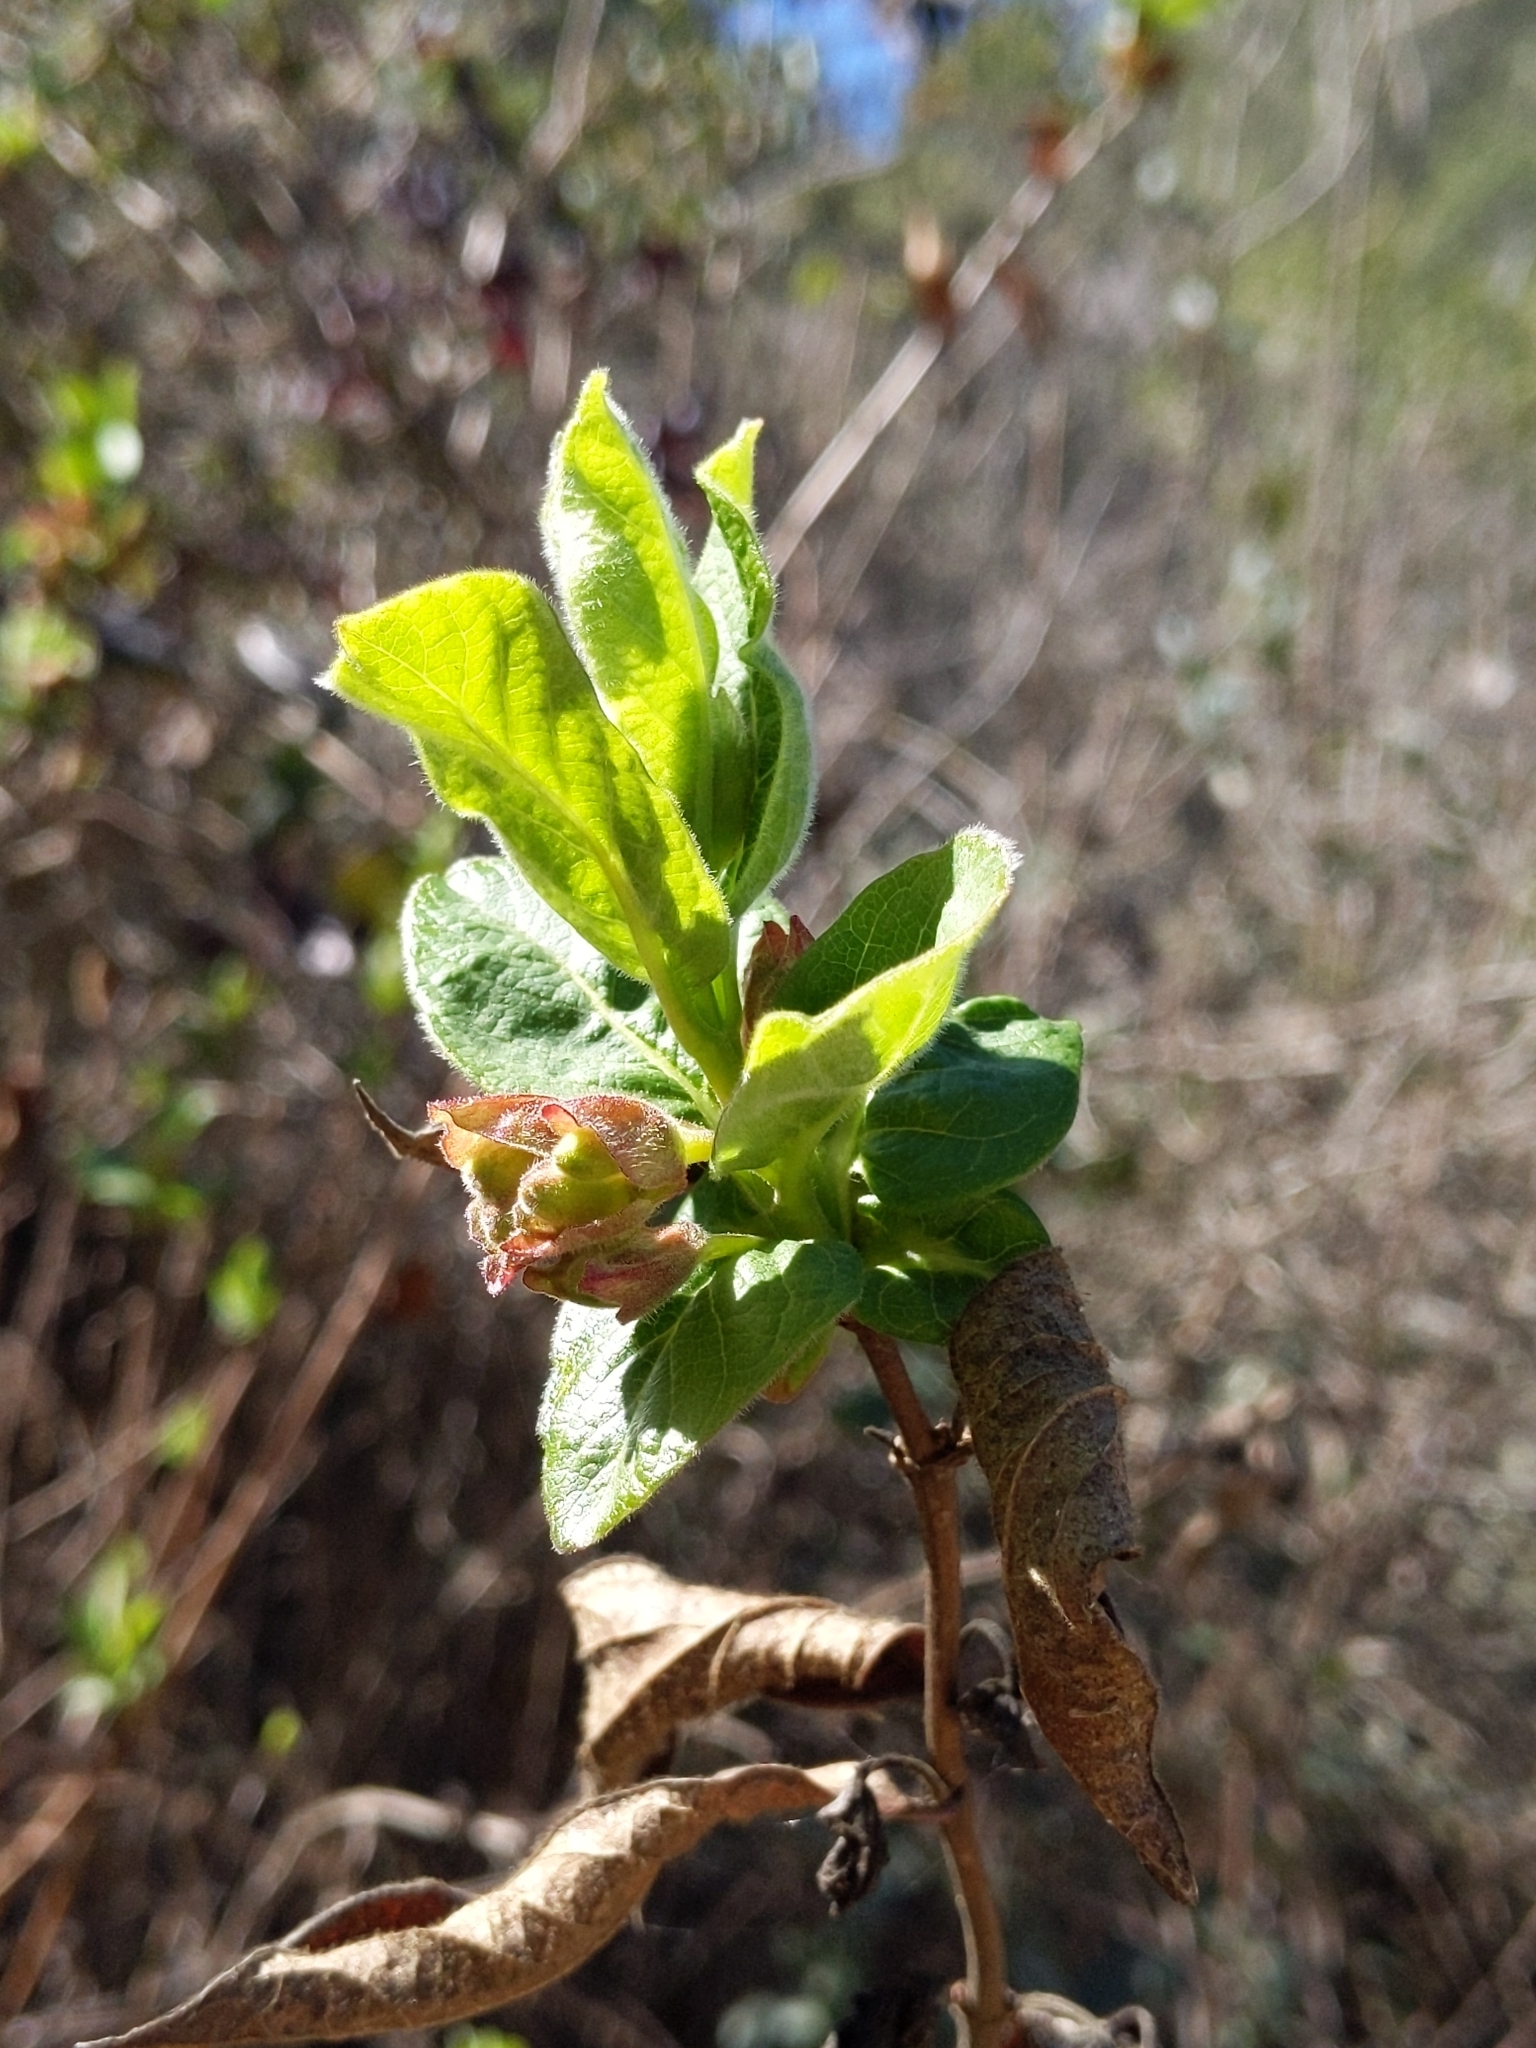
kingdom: Plantae
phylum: Tracheophyta
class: Magnoliopsida
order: Dipsacales
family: Caprifoliaceae
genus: Lonicera
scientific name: Lonicera involucrata
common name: Californian honeysuckle
